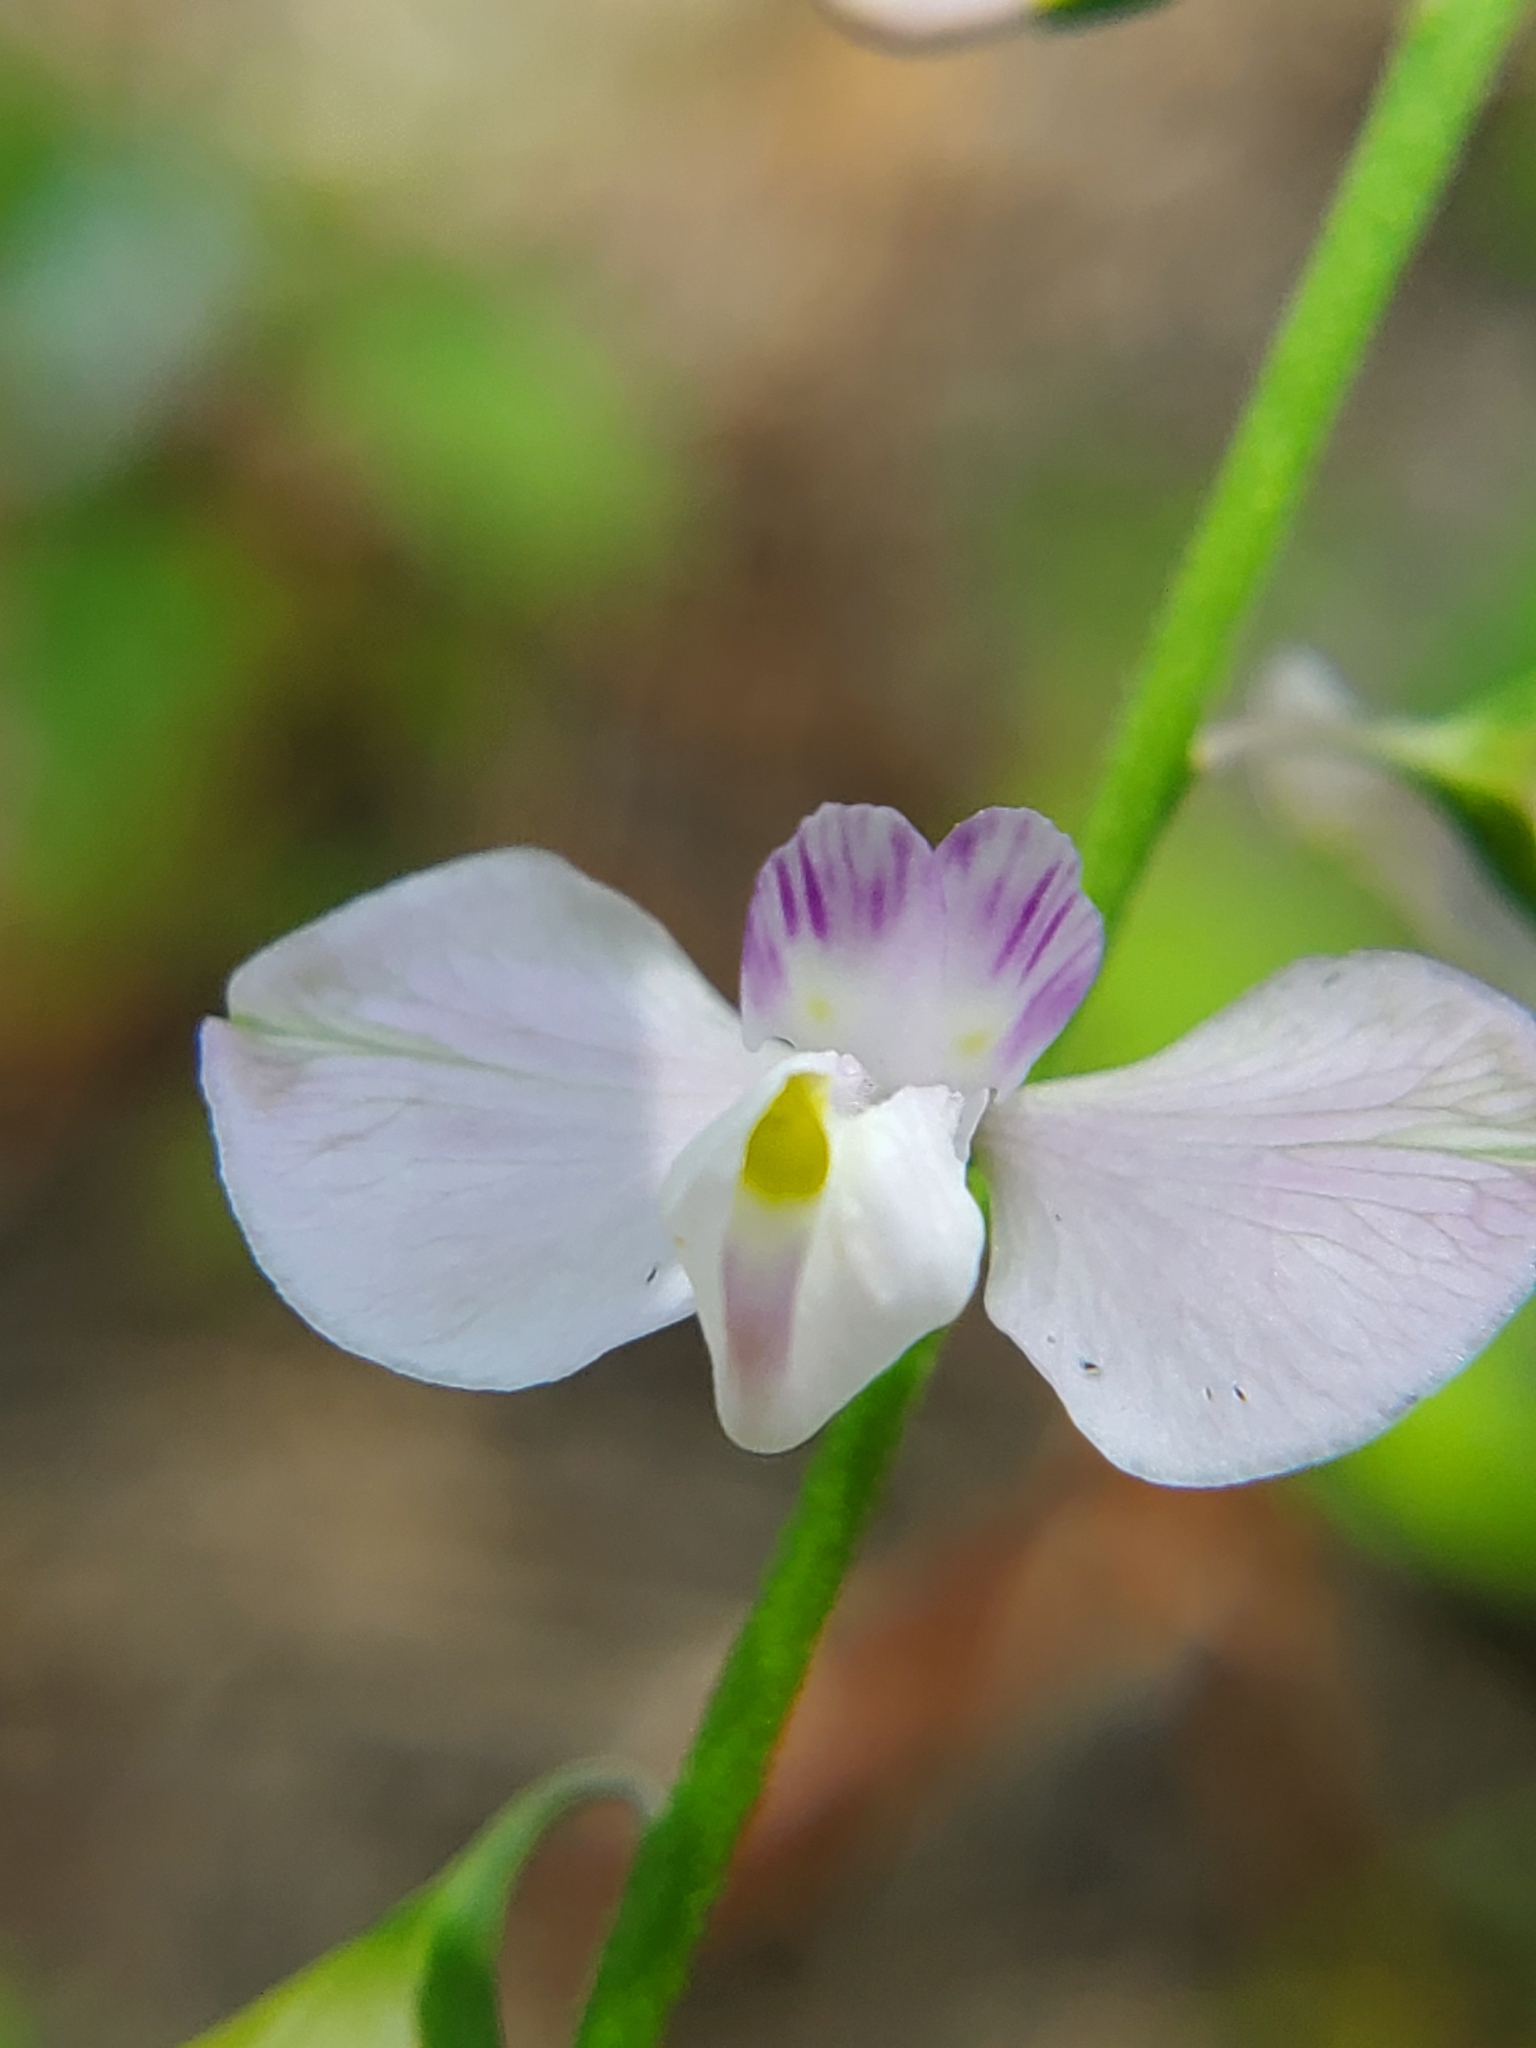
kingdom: Plantae
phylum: Tracheophyta
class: Magnoliopsida
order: Fabales
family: Polygalaceae
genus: Asemeia
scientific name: Asemeia grandiflora
